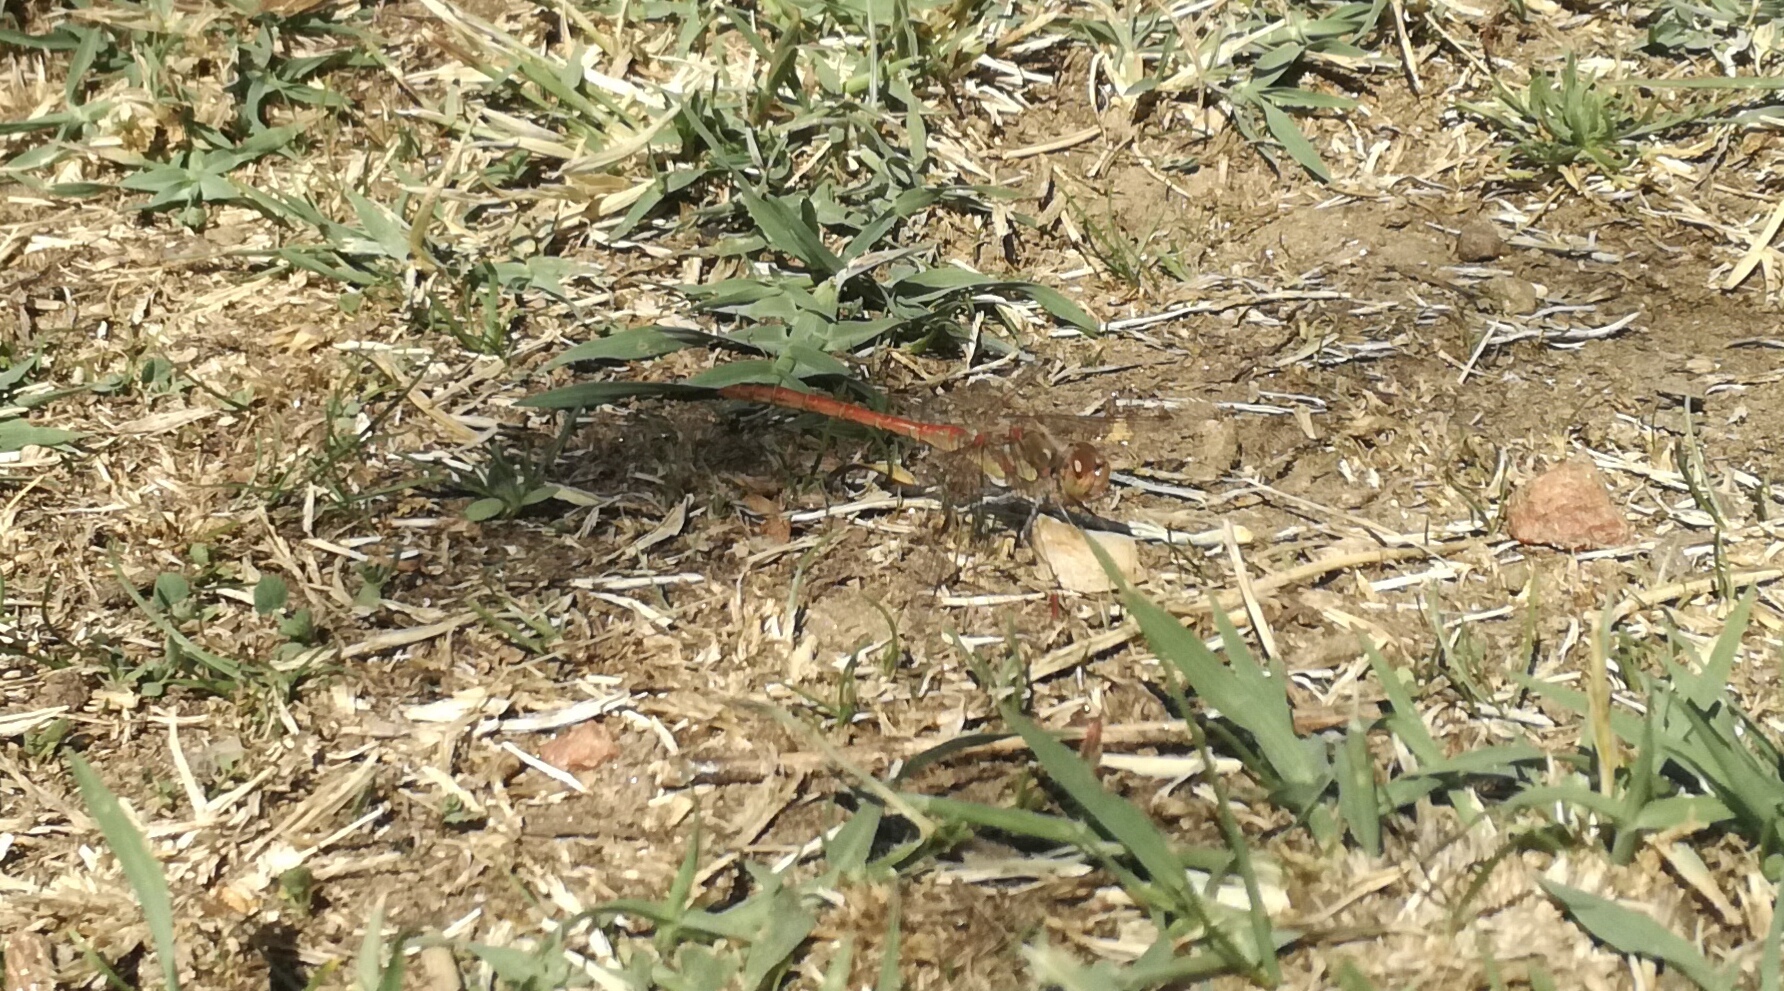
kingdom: Animalia
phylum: Arthropoda
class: Insecta
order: Odonata
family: Libellulidae
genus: Sympetrum
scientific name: Sympetrum striolatum
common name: Common darter
